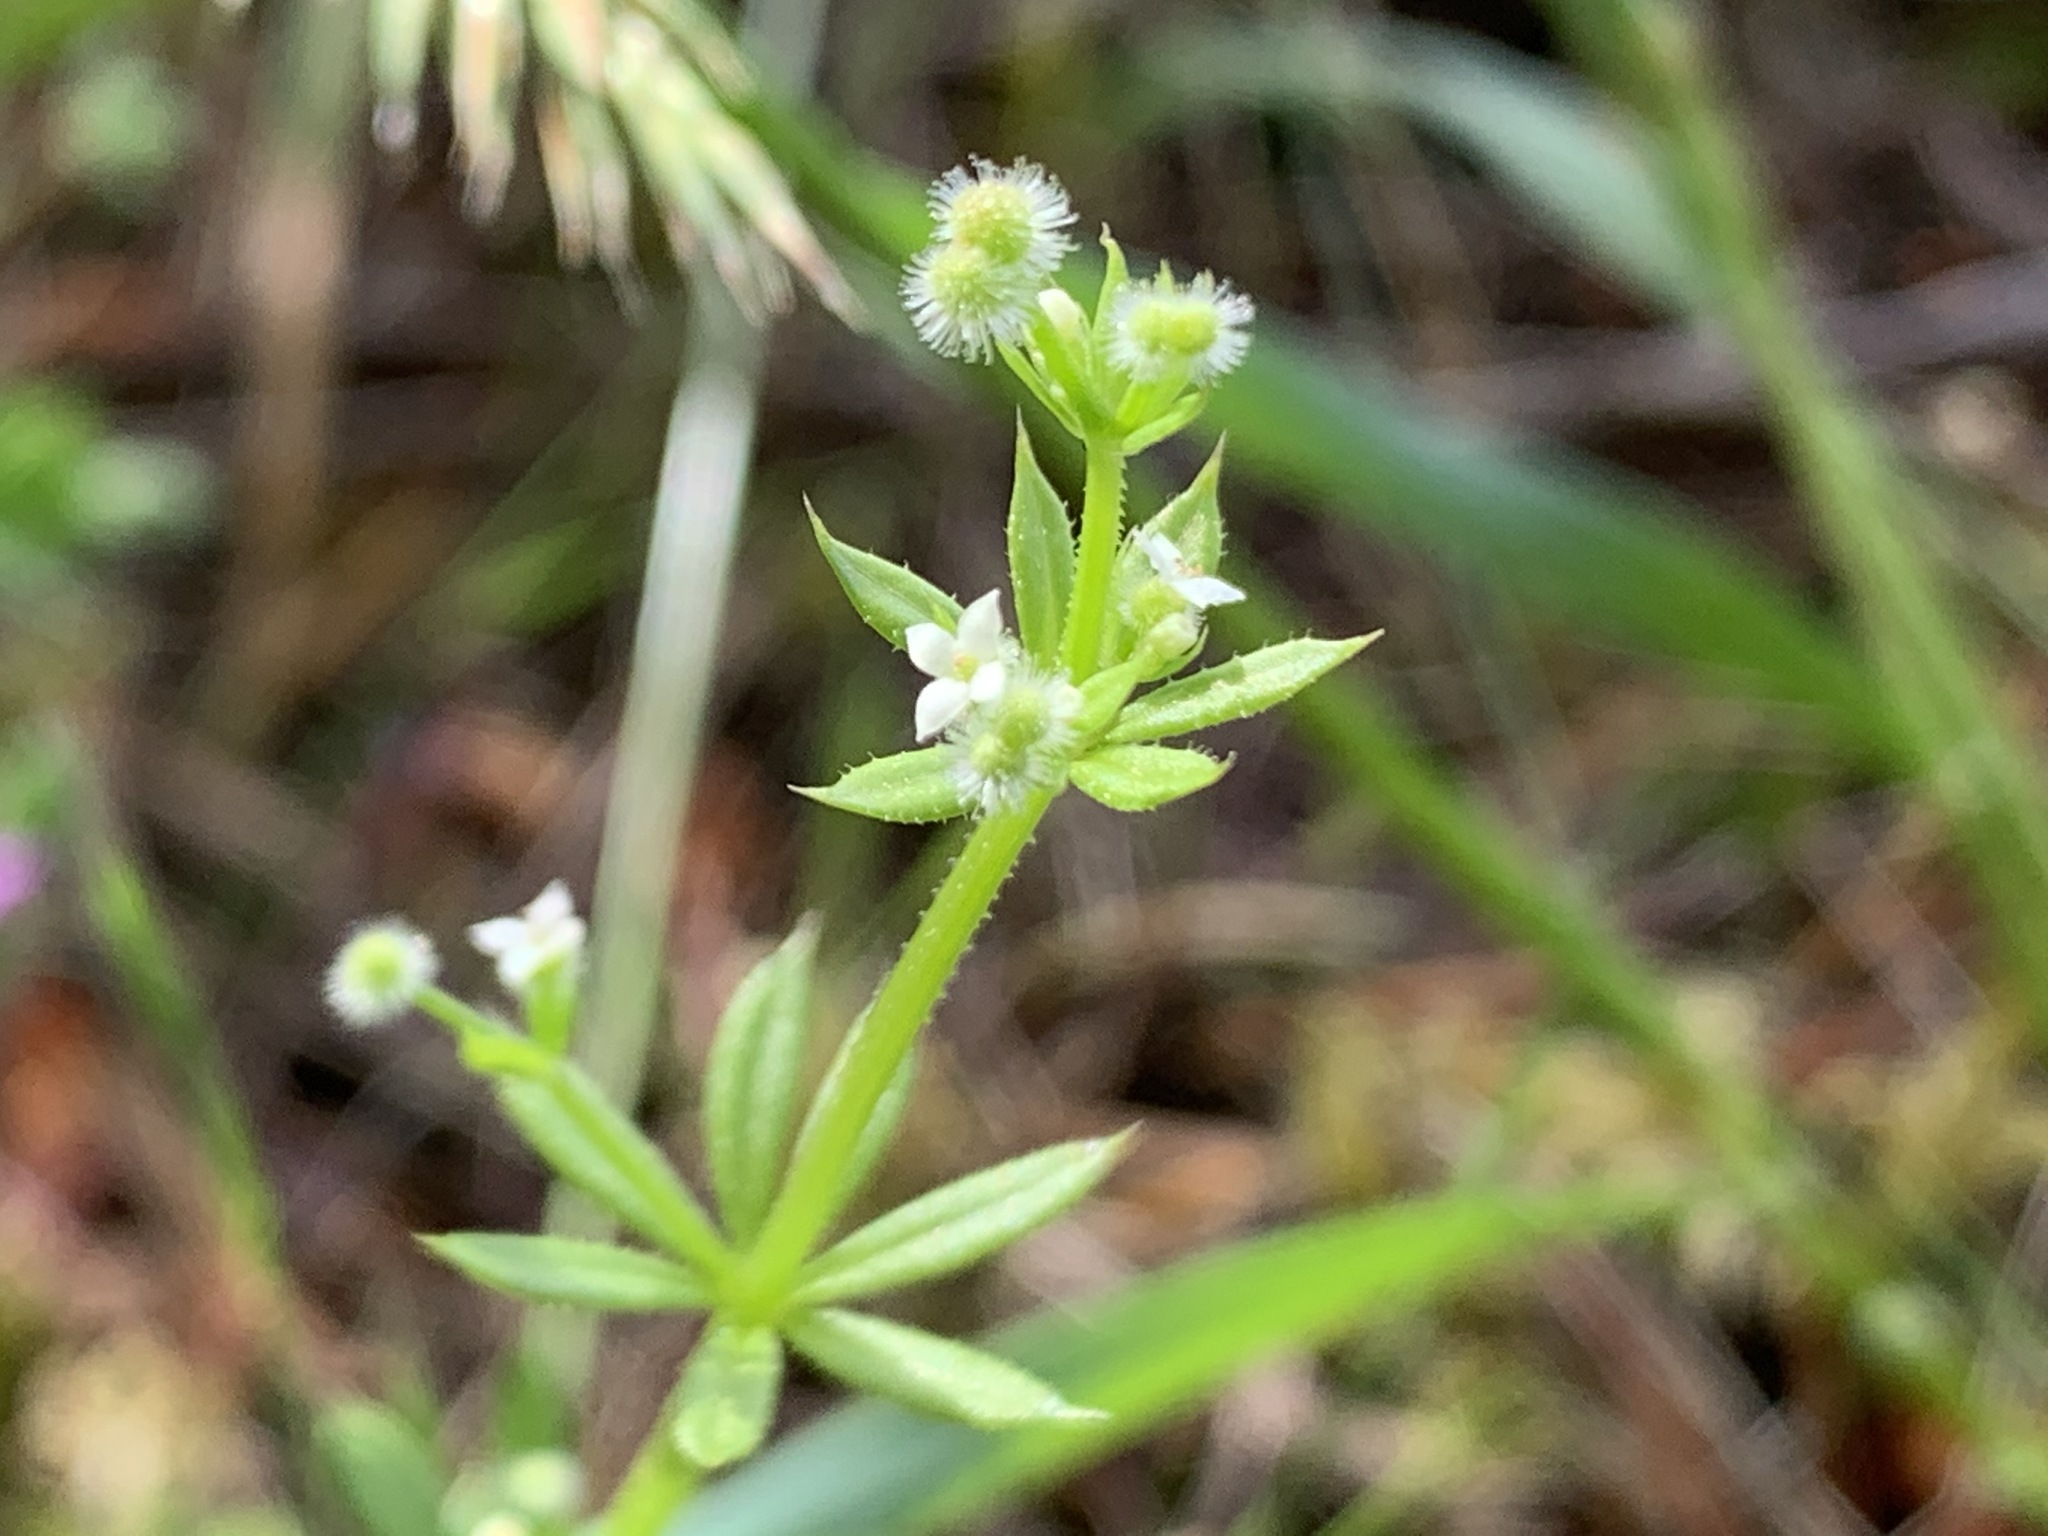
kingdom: Plantae
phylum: Tracheophyta
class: Magnoliopsida
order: Gentianales
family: Rubiaceae
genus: Galium
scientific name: Galium aparine
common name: Cleavers
